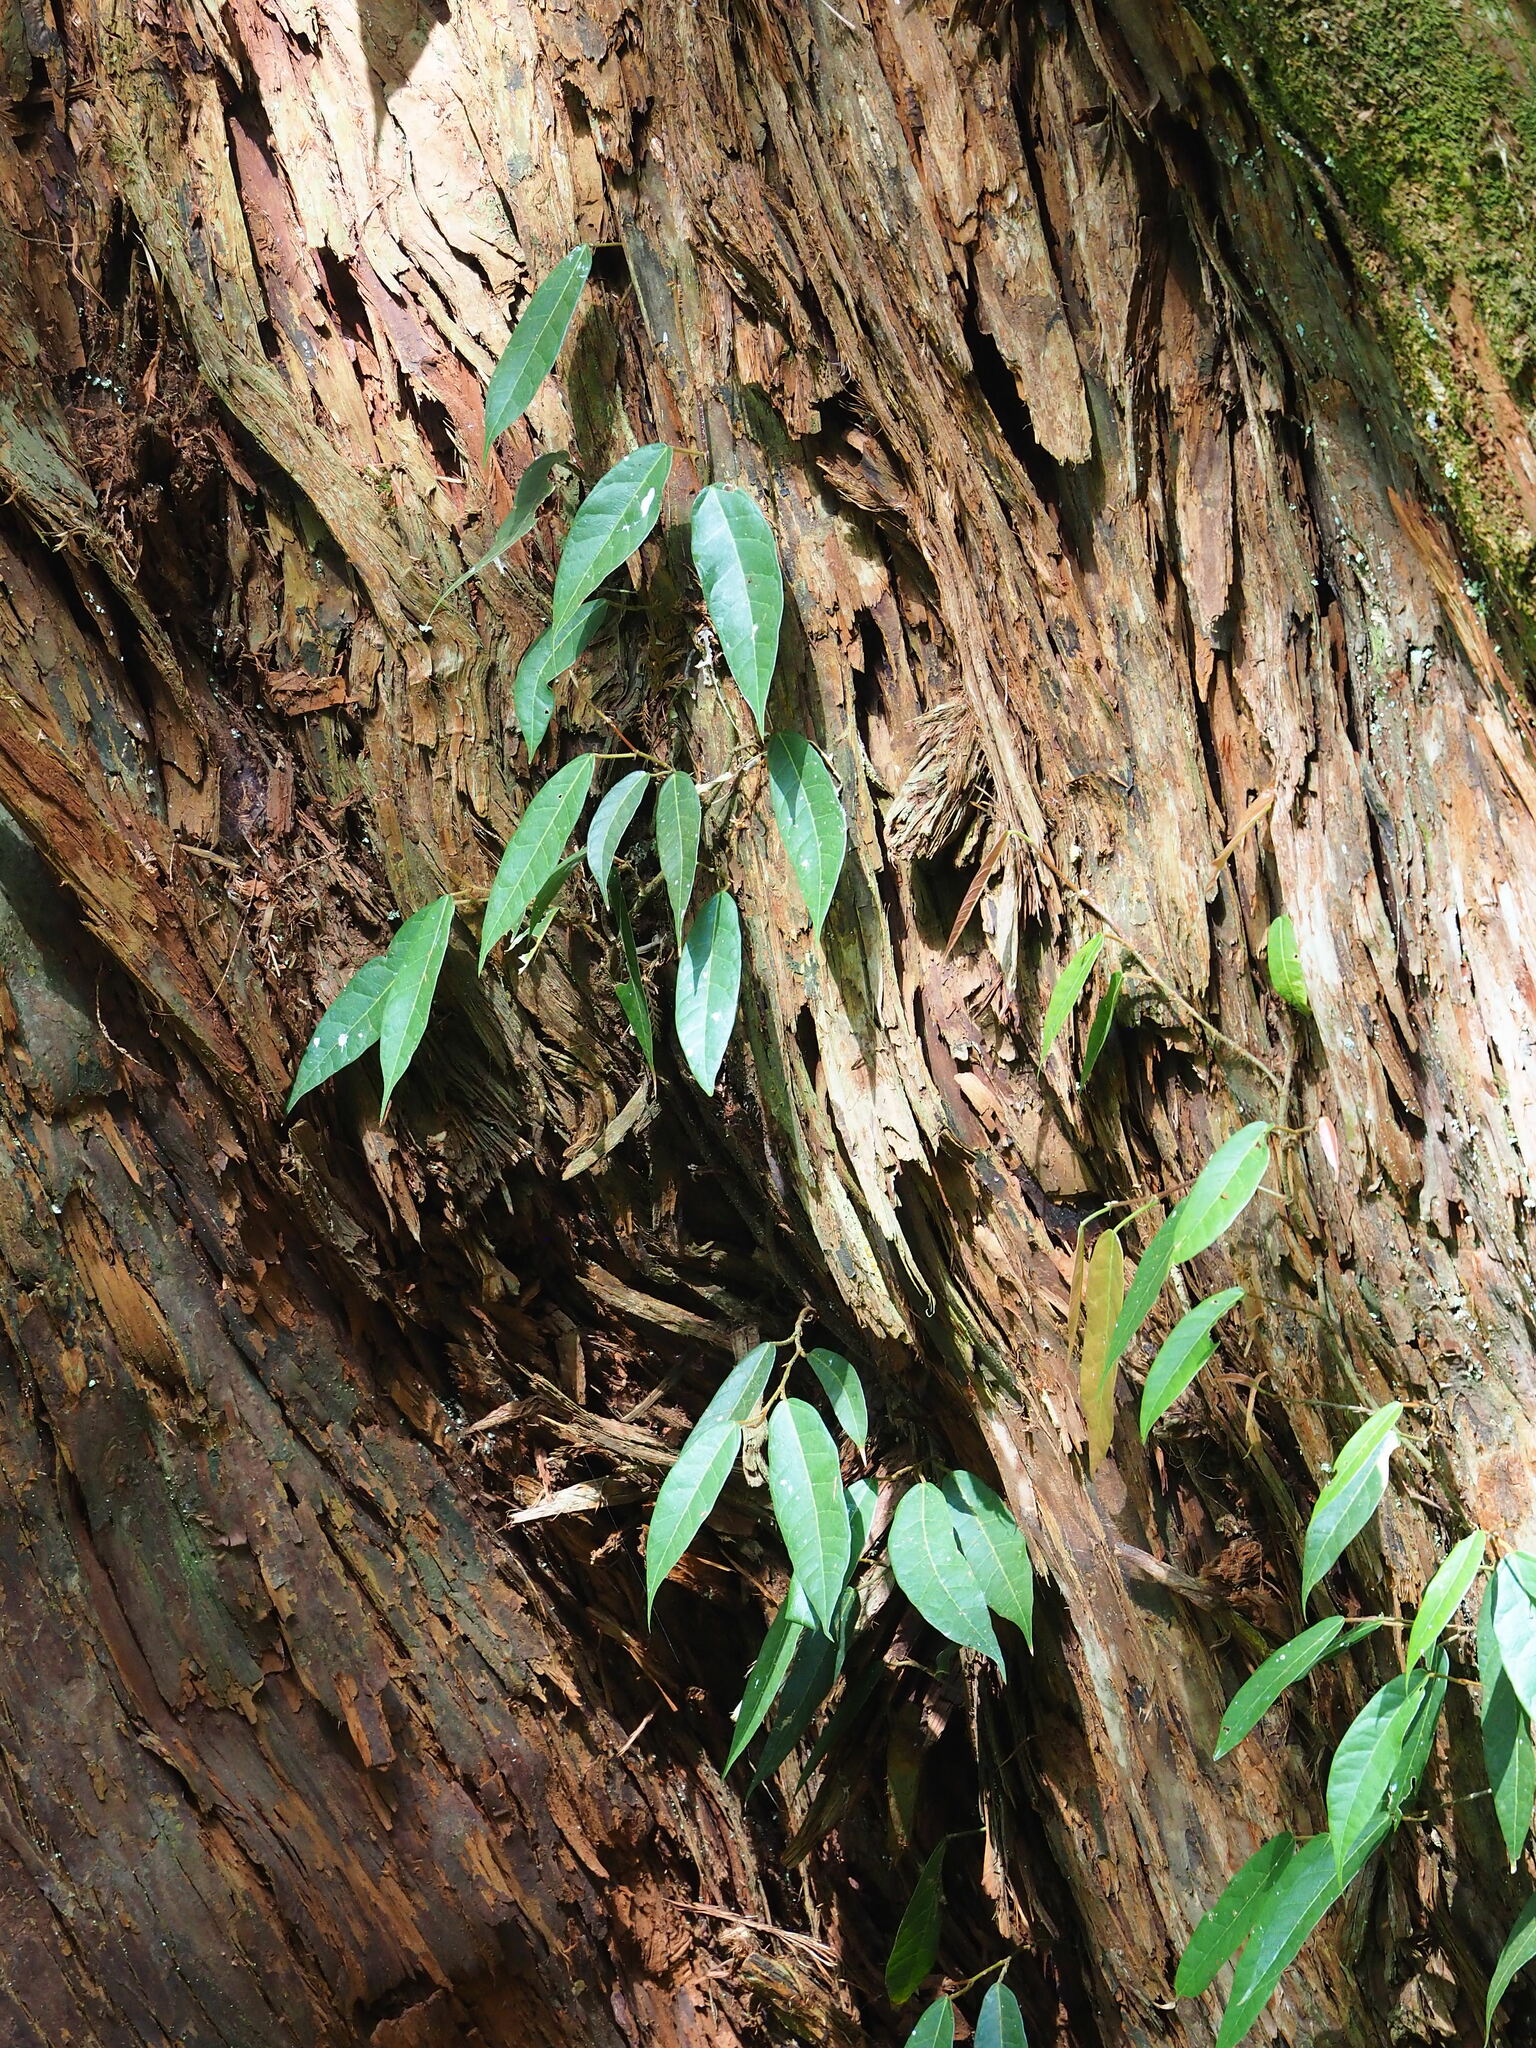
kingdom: Plantae
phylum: Tracheophyta
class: Magnoliopsida
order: Rosales
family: Moraceae
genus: Ficus
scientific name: Ficus sarmentosa
